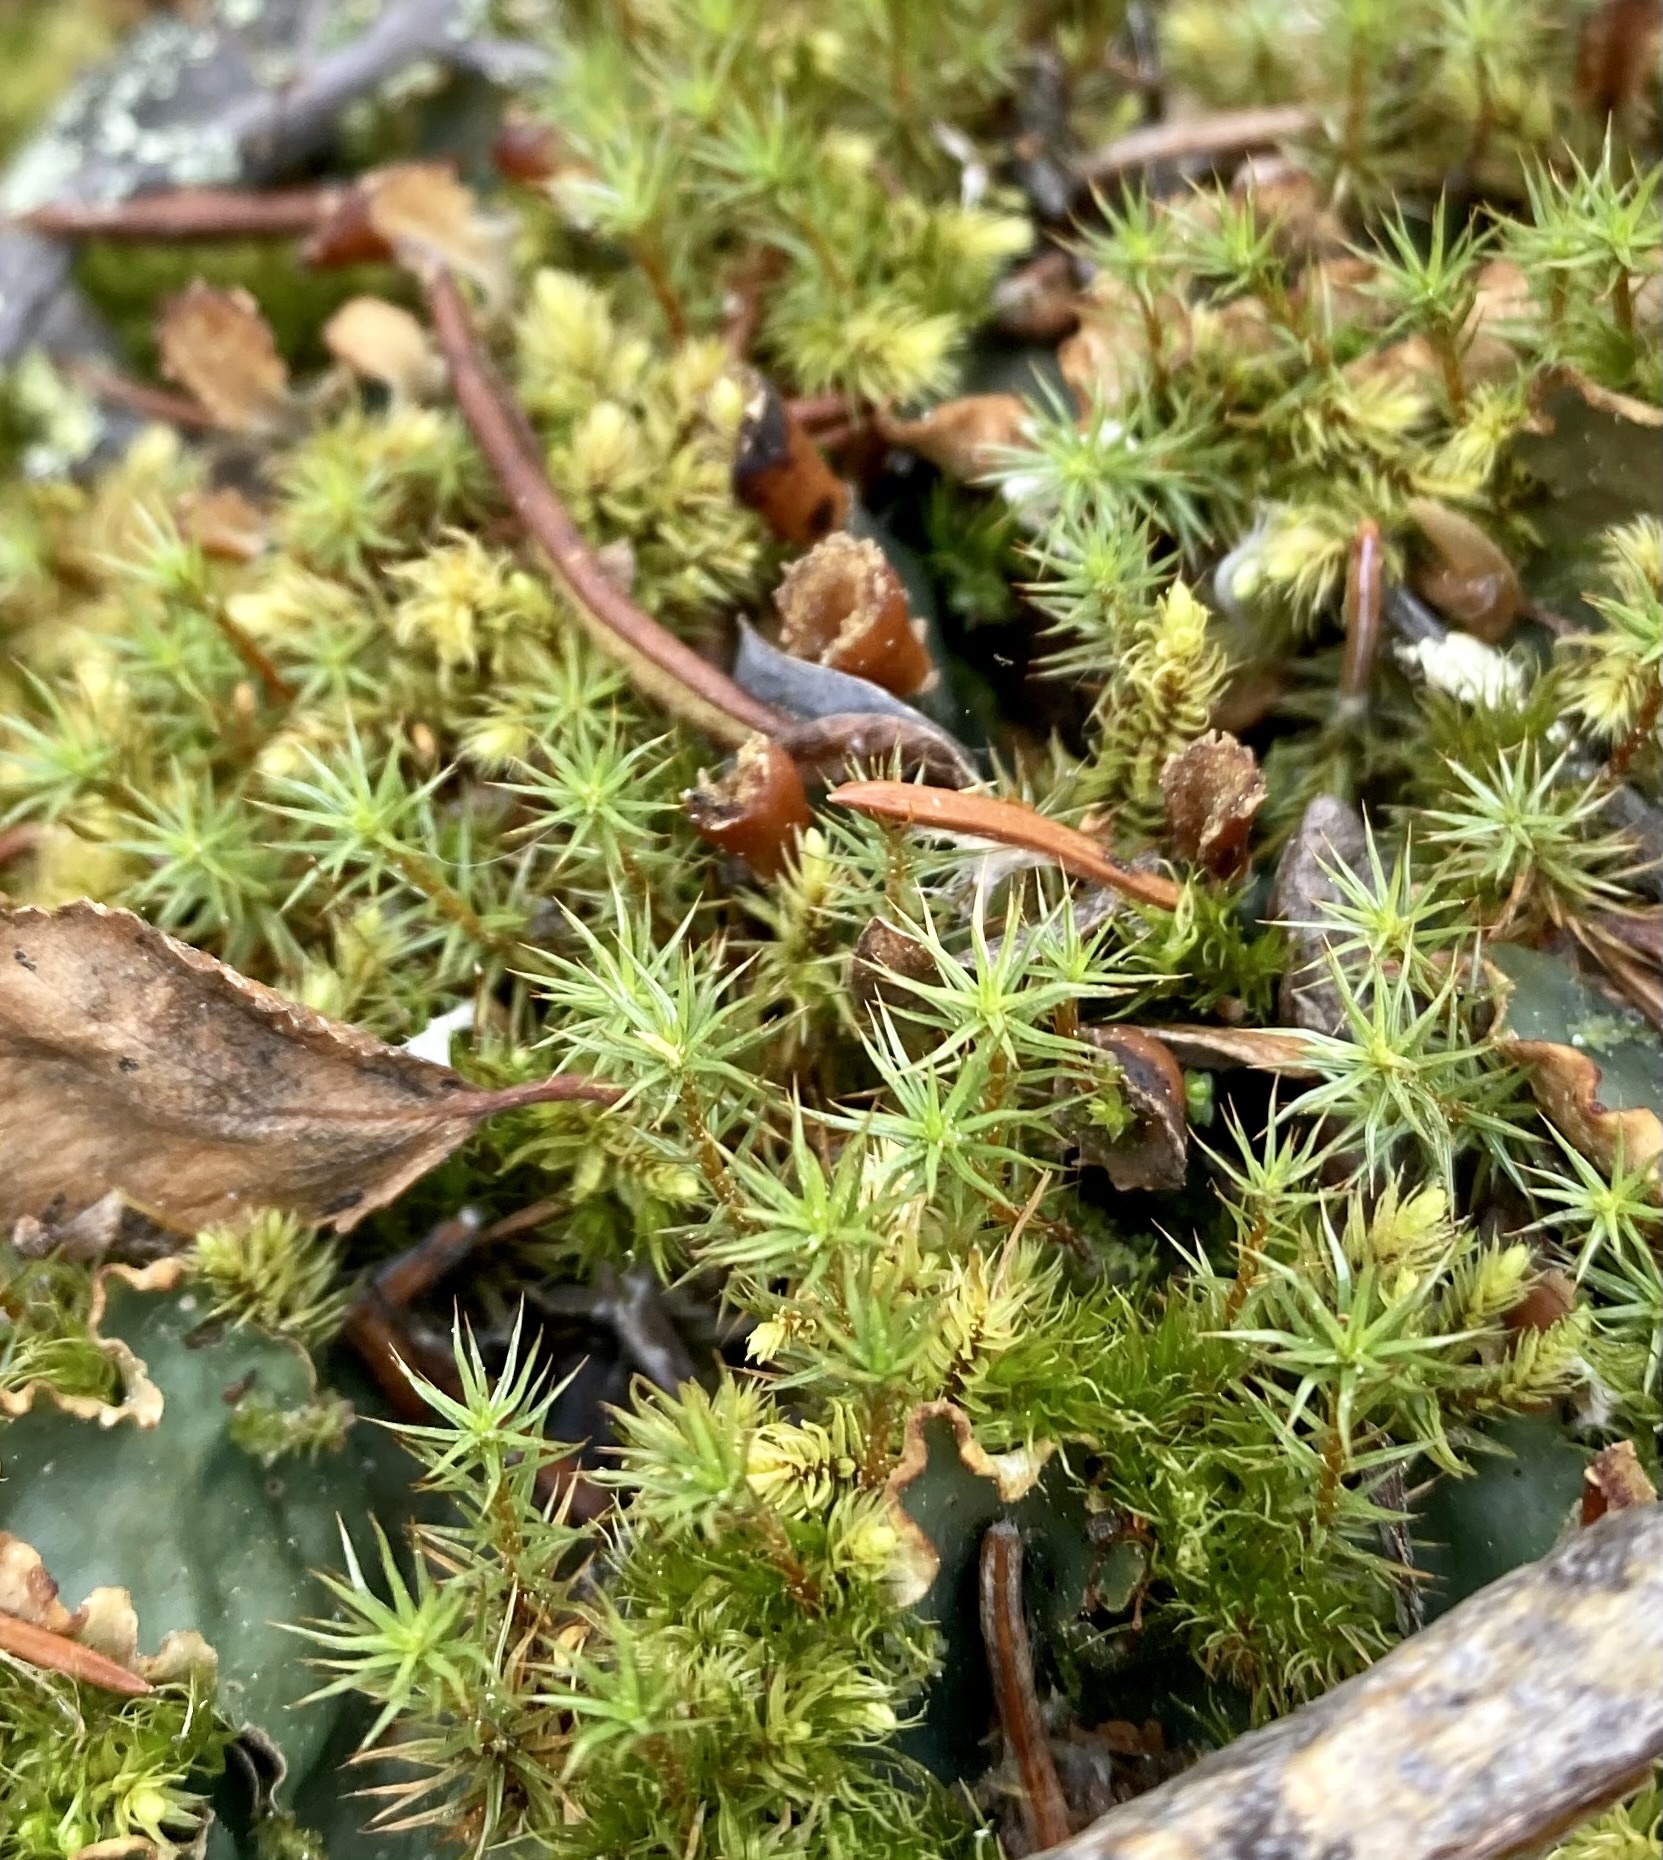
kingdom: Plantae
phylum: Bryophyta
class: Polytrichopsida
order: Polytrichales
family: Polytrichaceae
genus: Polytrichum
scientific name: Polytrichum juniperinum
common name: Juniper haircap moss
